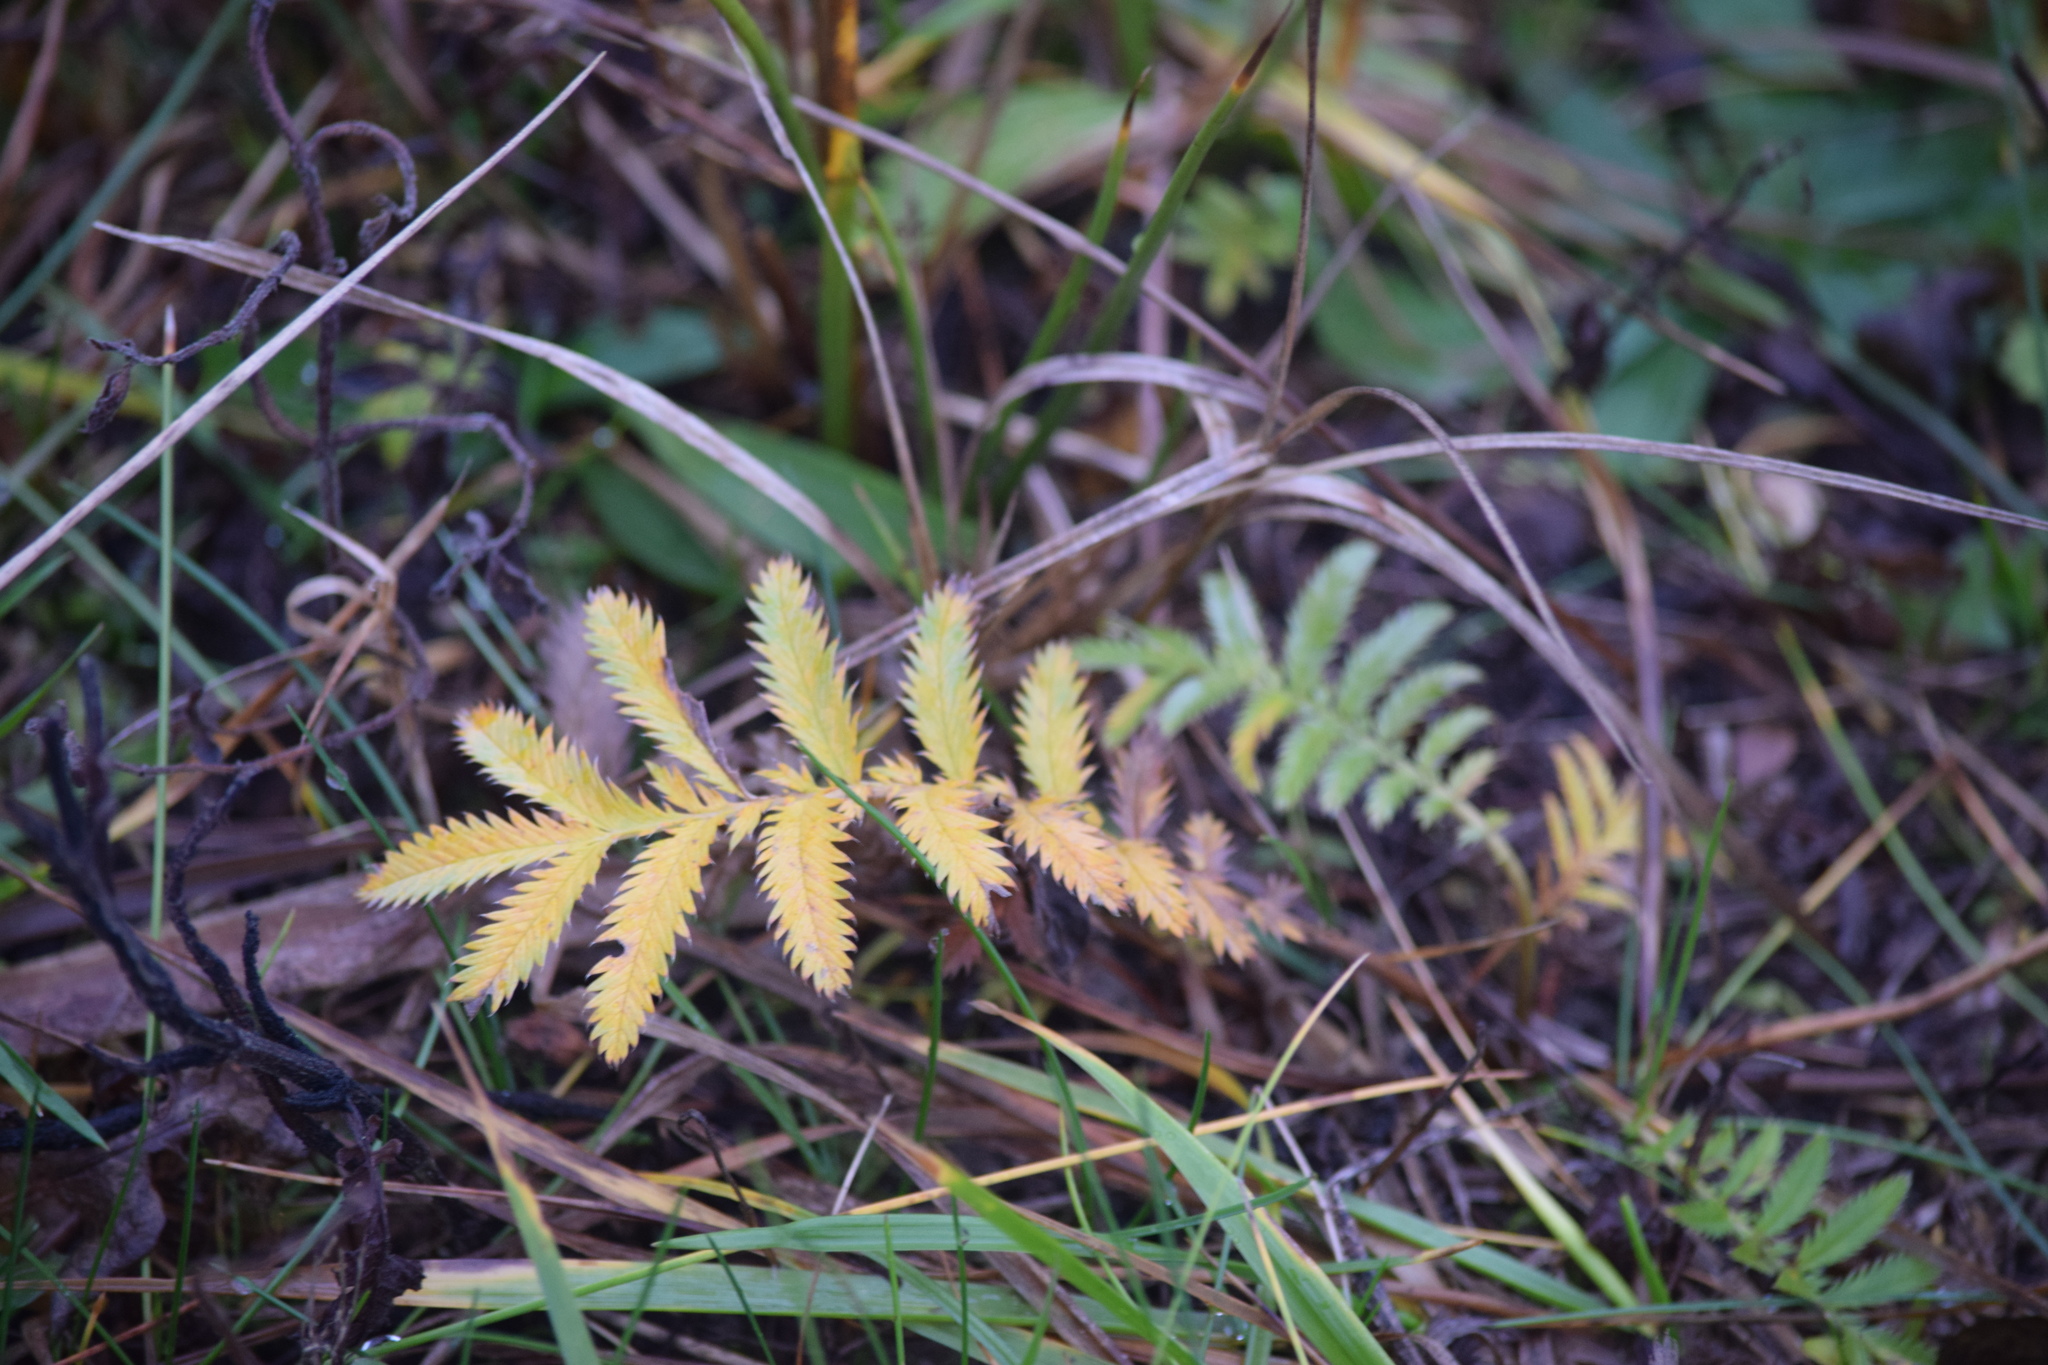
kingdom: Plantae
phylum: Tracheophyta
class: Magnoliopsida
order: Rosales
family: Rosaceae
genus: Argentina
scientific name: Argentina anserina
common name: Common silverweed
